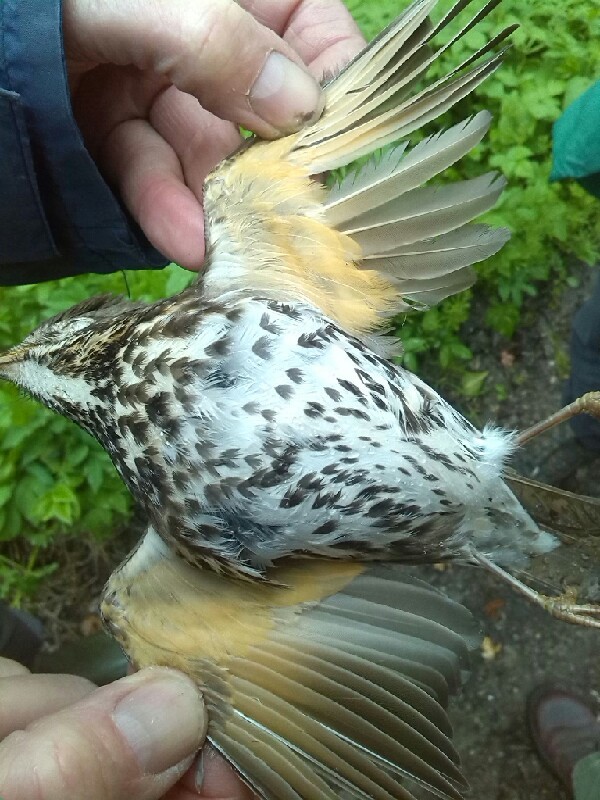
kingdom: Animalia
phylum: Chordata
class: Aves
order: Passeriformes
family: Turdidae
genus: Turdus
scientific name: Turdus philomelos
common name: Song thrush
